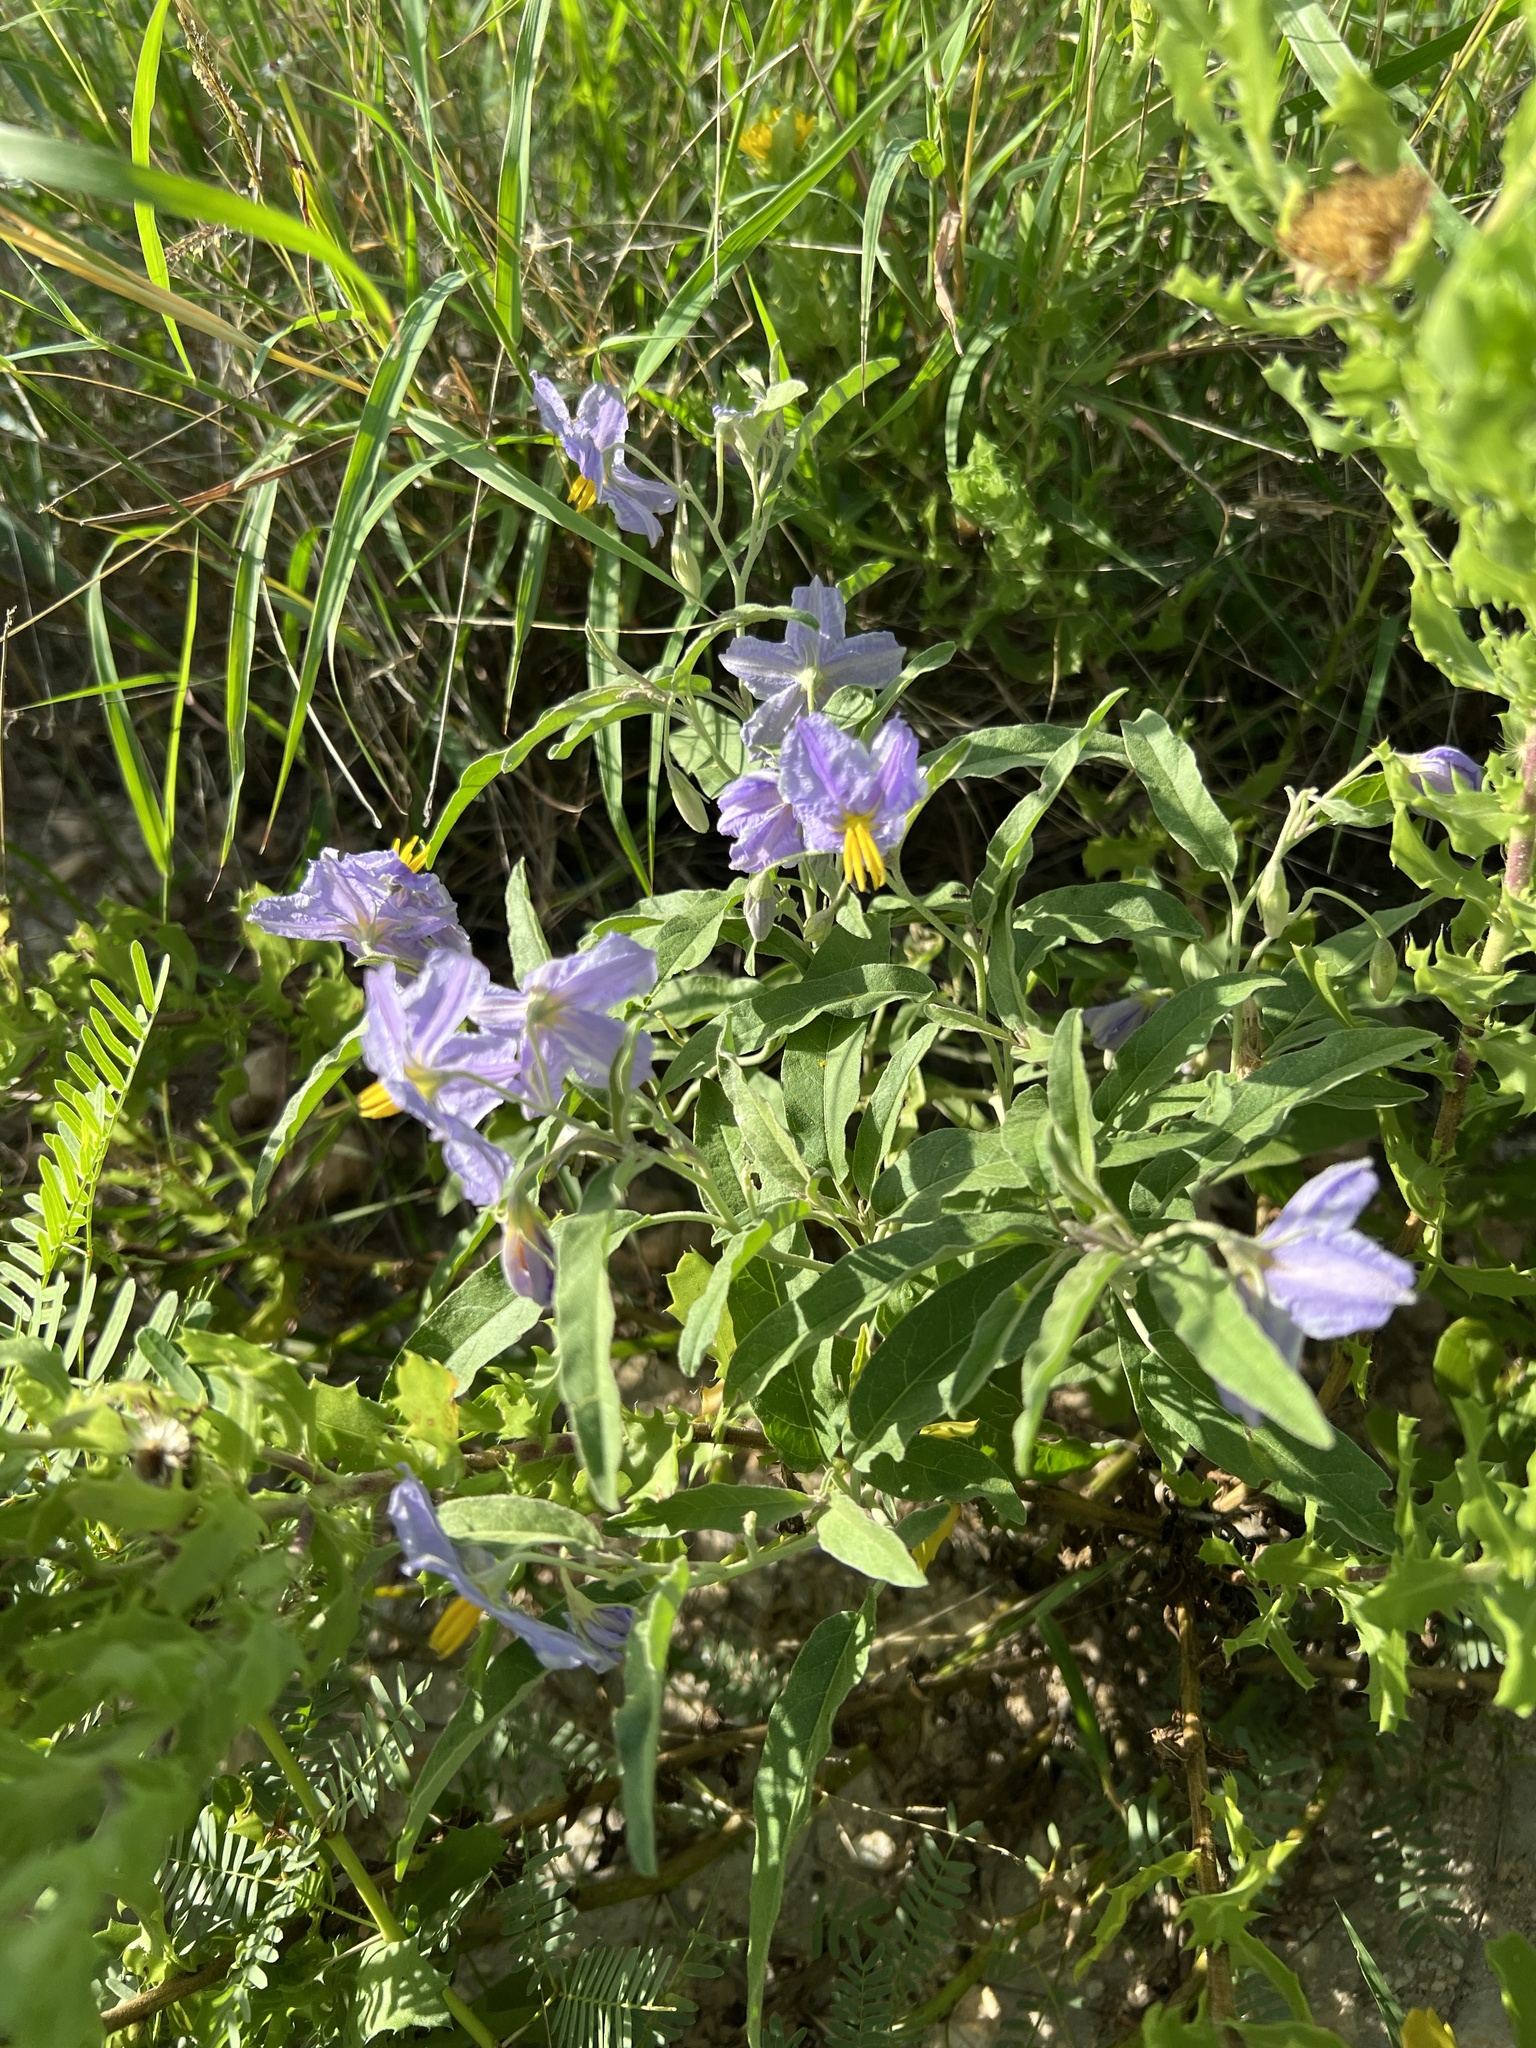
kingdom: Plantae
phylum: Tracheophyta
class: Magnoliopsida
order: Solanales
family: Solanaceae
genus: Solanum
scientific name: Solanum elaeagnifolium
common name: Silverleaf nightshade
